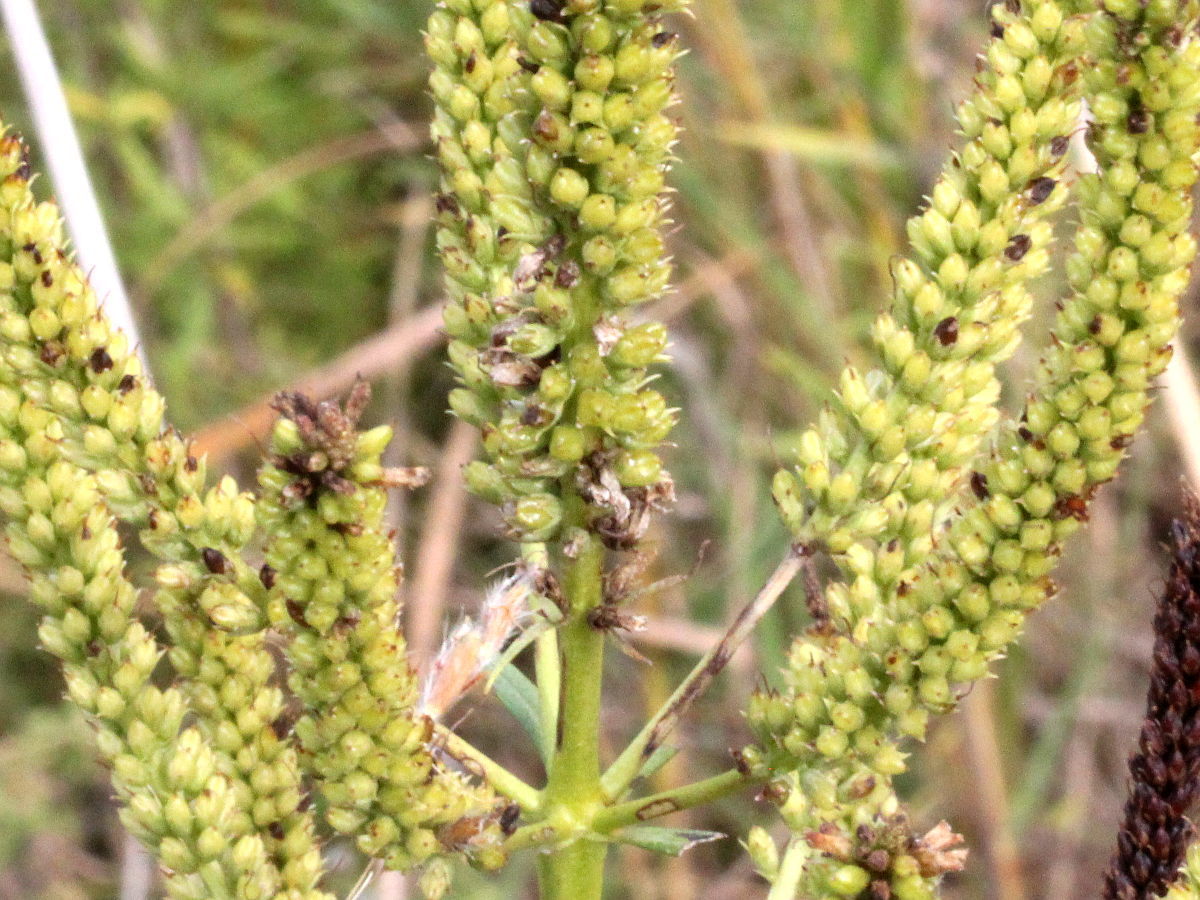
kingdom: Plantae
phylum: Tracheophyta
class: Magnoliopsida
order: Lamiales
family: Plantaginaceae
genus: Veronicastrum
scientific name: Veronicastrum virginicum
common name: Blackroot
